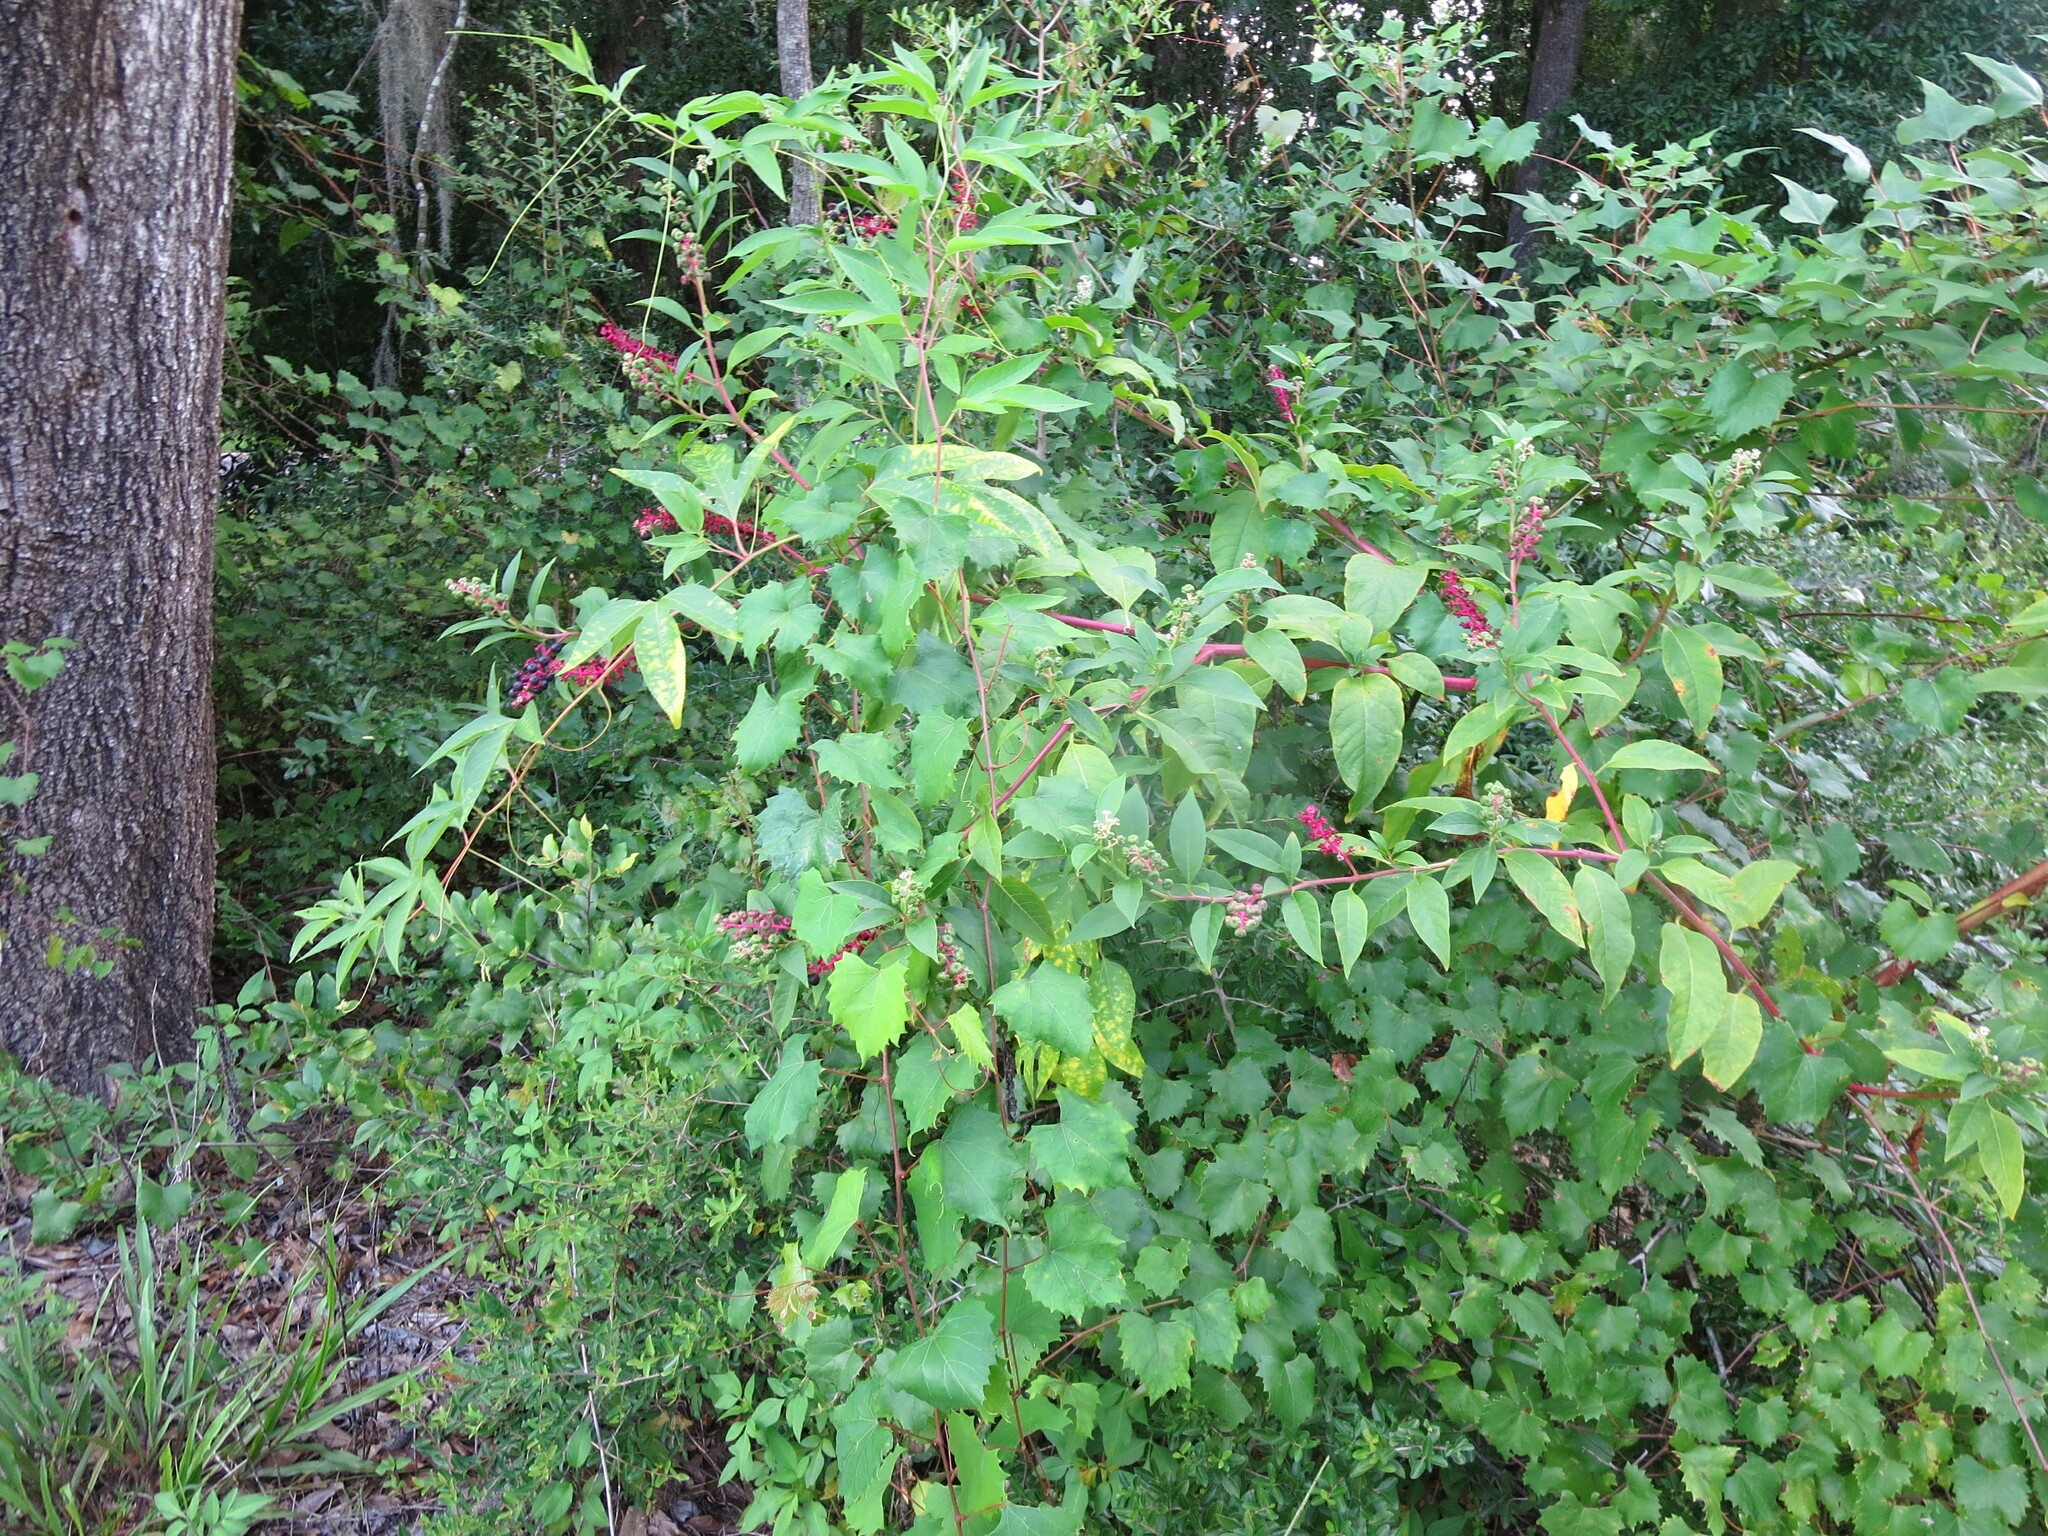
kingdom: Plantae
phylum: Tracheophyta
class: Magnoliopsida
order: Caryophyllales
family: Phytolaccaceae
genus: Phytolacca
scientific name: Phytolacca americana
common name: American pokeweed
